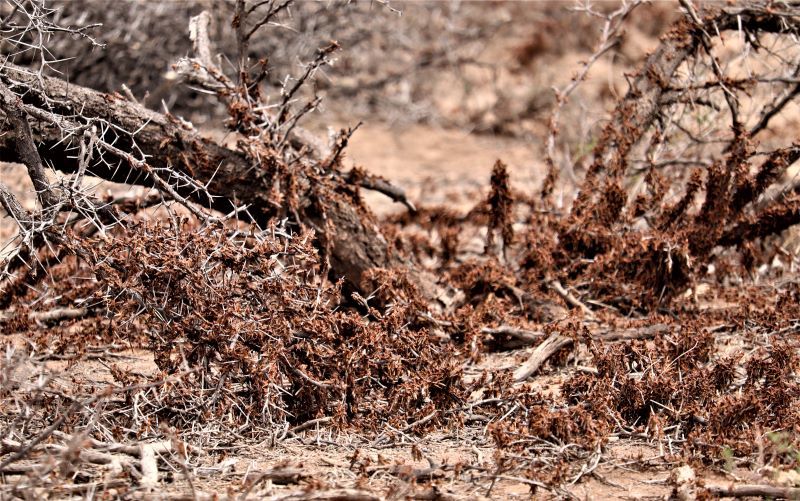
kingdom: Animalia
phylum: Arthropoda
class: Insecta
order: Orthoptera
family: Acrididae
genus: Locustana
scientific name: Locustana pardalina
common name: Brown locust
